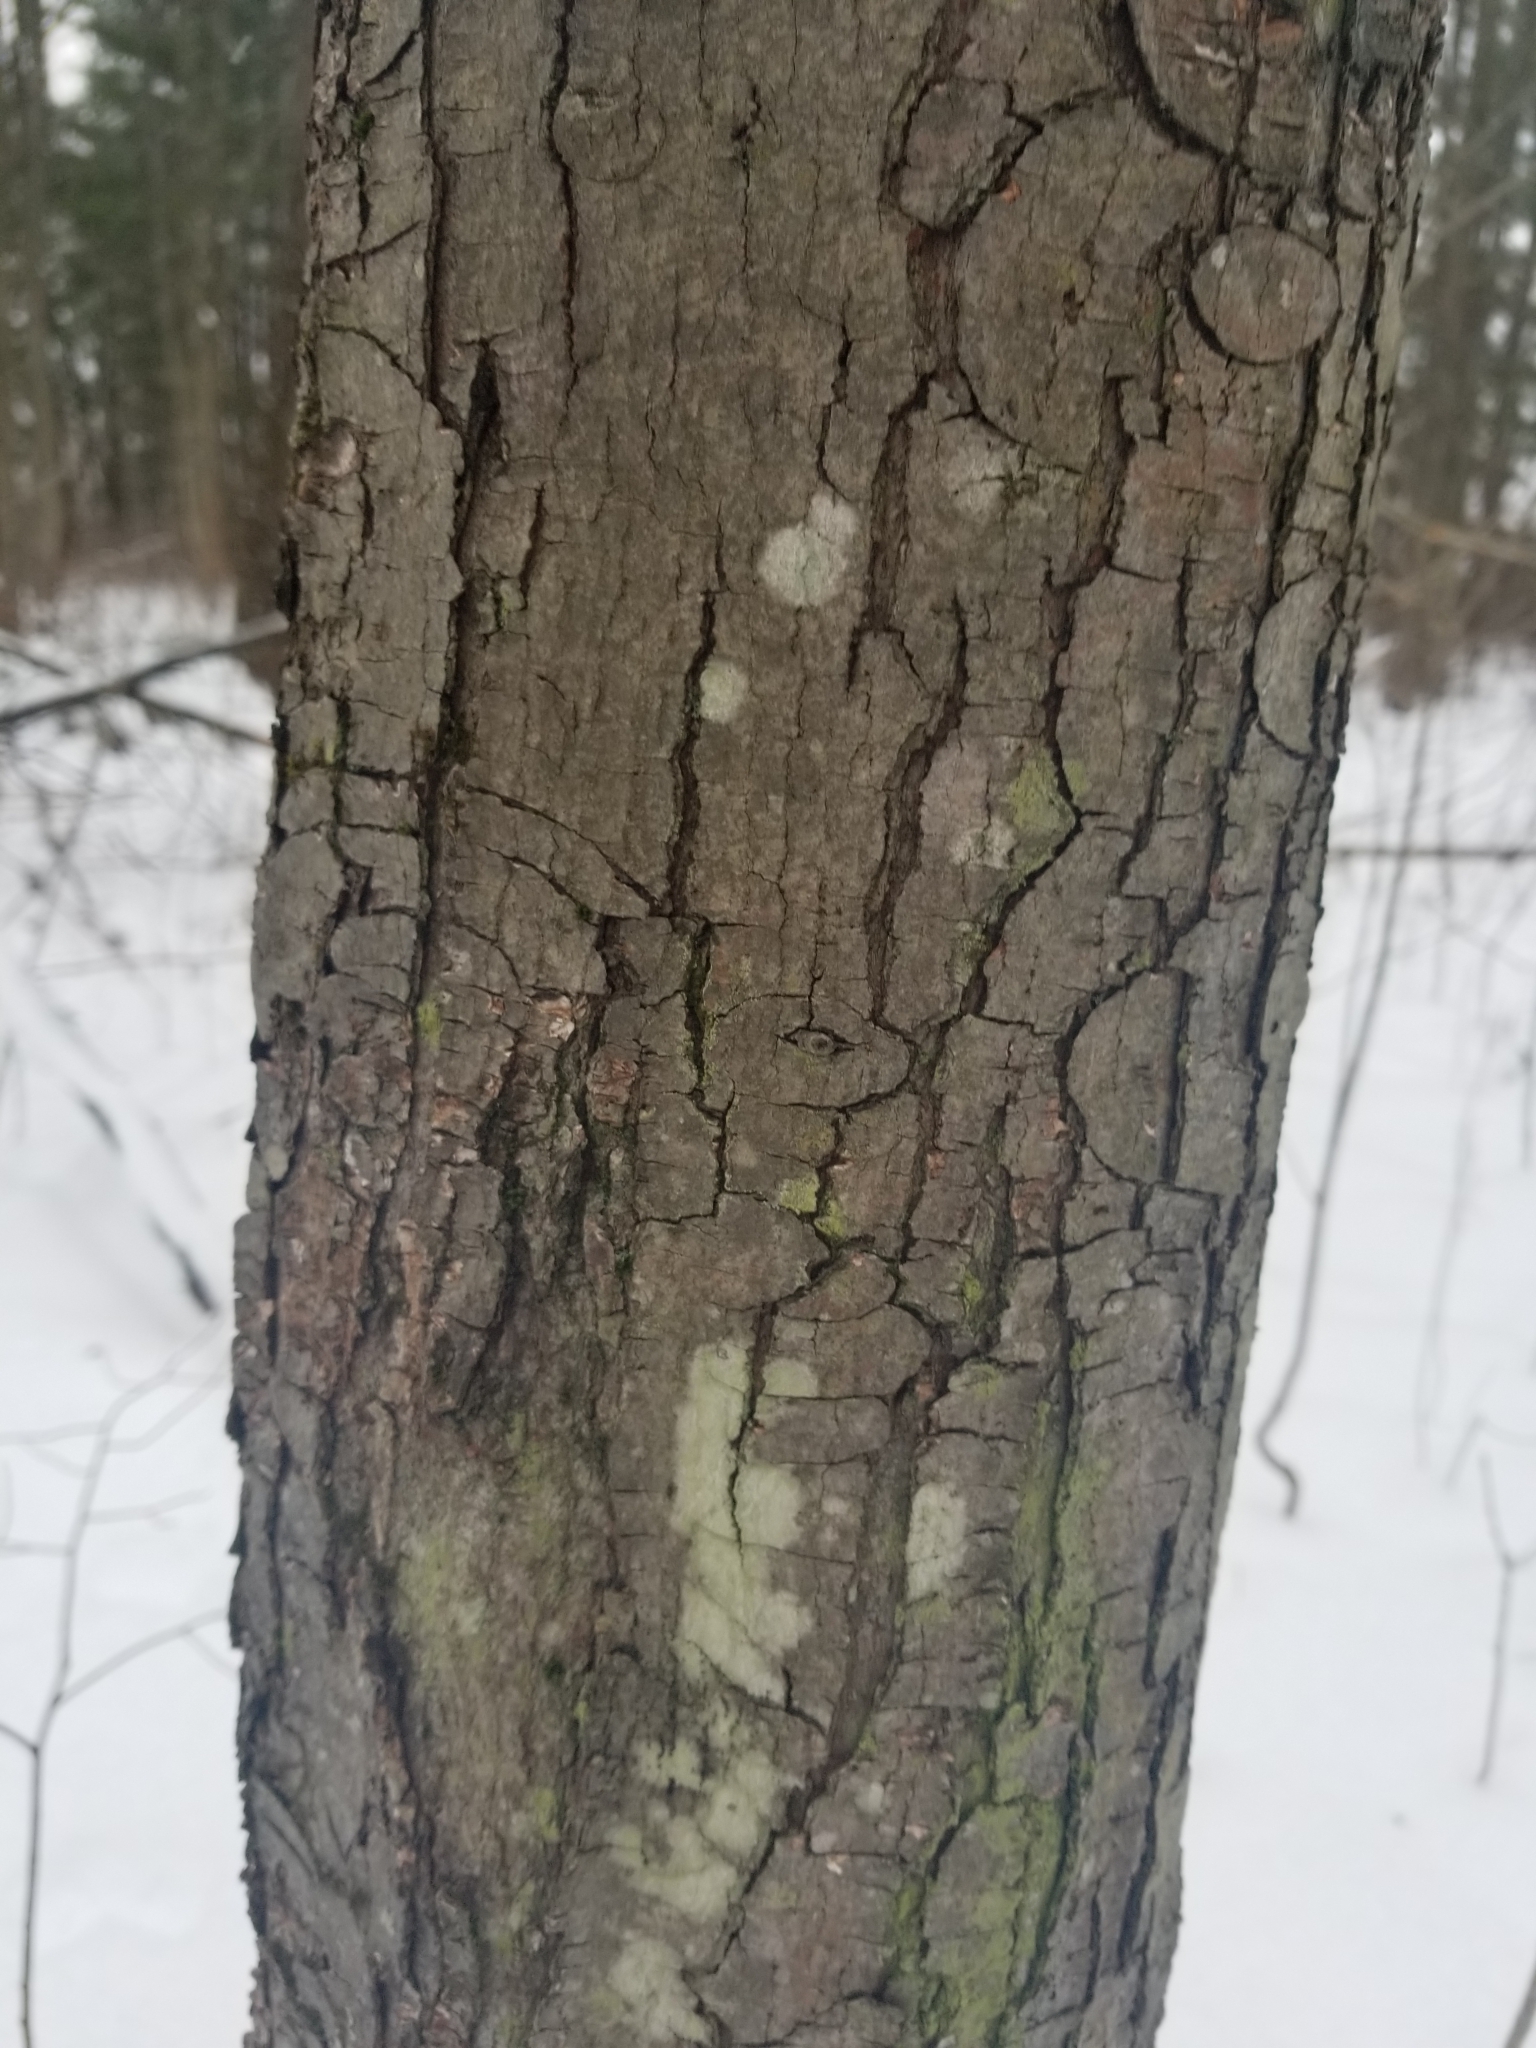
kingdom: Plantae
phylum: Tracheophyta
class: Magnoliopsida
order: Sapindales
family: Sapindaceae
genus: Acer
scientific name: Acer rubrum
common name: Red maple
